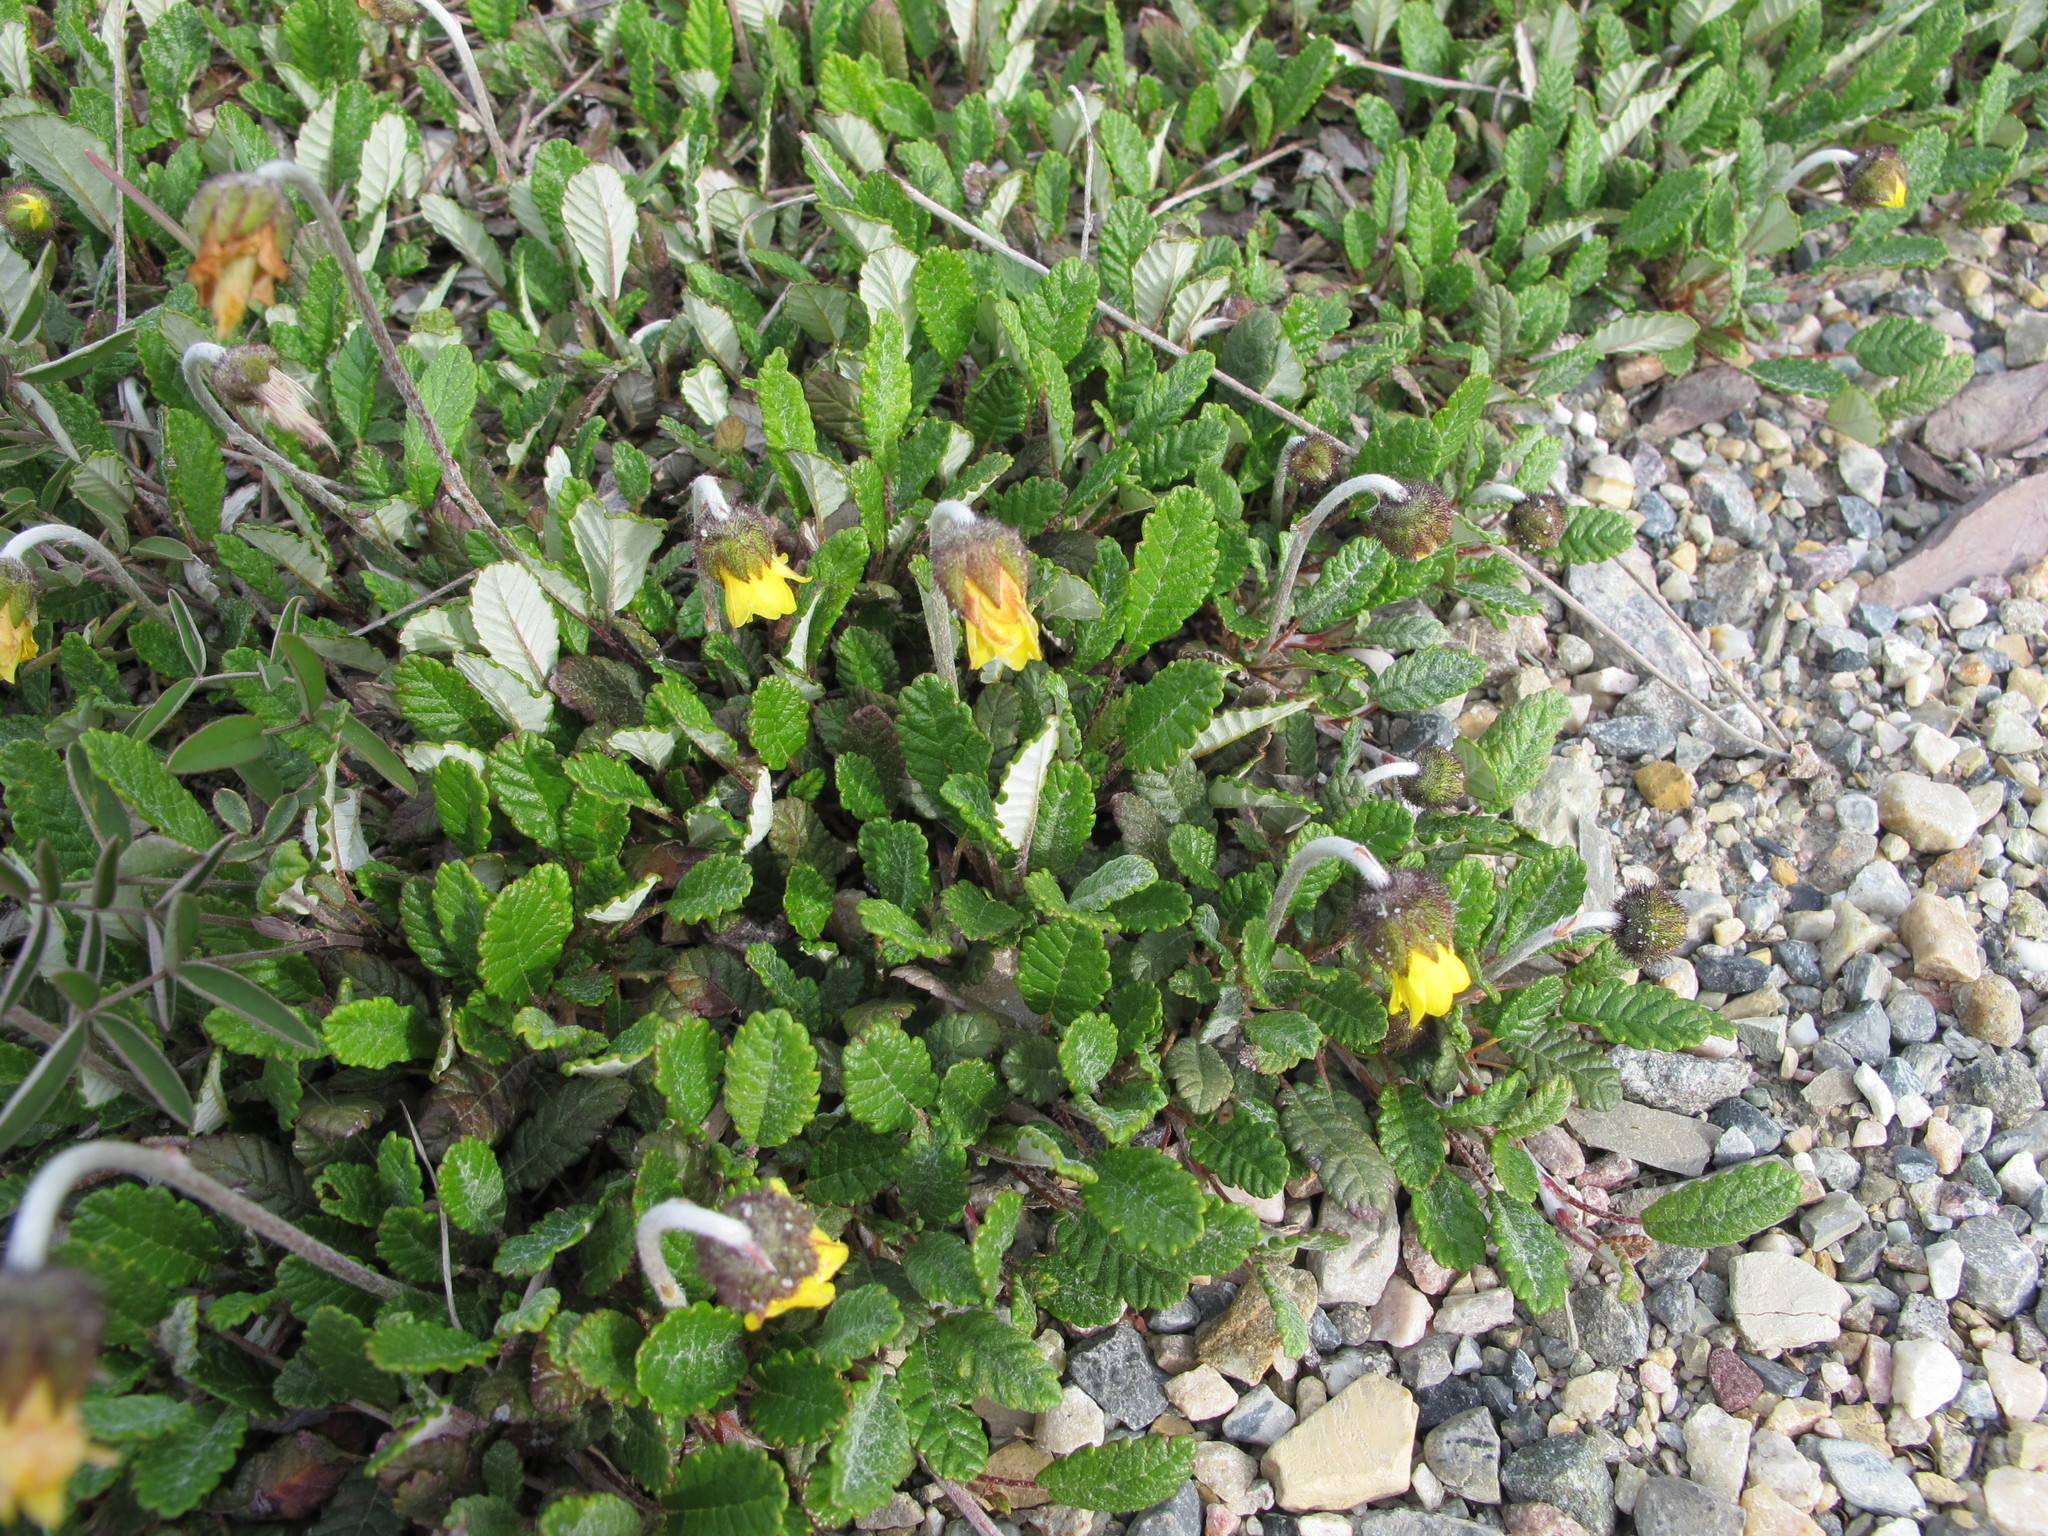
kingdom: Plantae
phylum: Tracheophyta
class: Magnoliopsida
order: Rosales
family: Rosaceae
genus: Dryas
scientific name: Dryas drummondii
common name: Drummond's dryad
